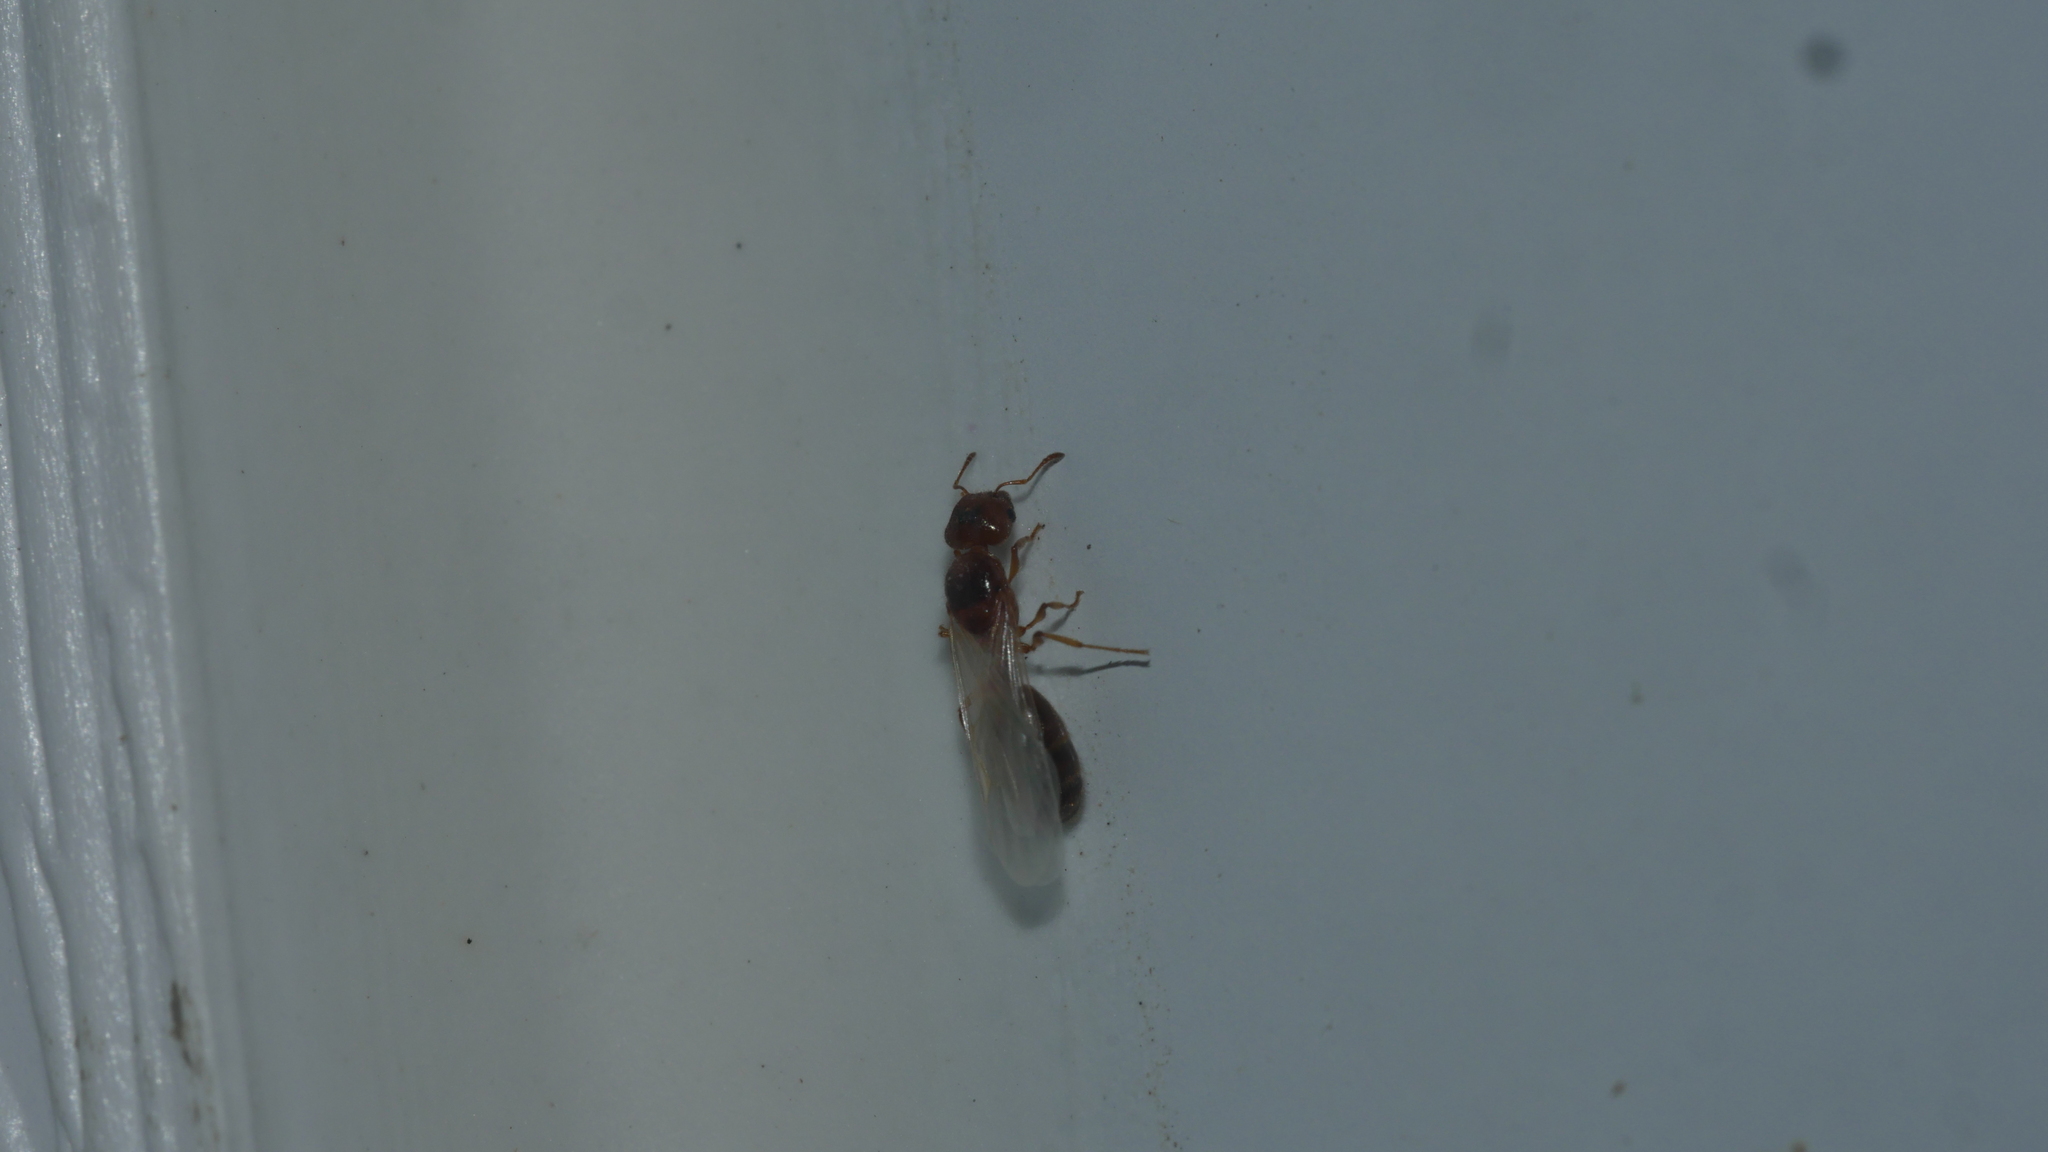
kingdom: Animalia
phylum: Arthropoda
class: Insecta
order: Hymenoptera
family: Formicidae
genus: Pheidole
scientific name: Pheidole bicarinata
